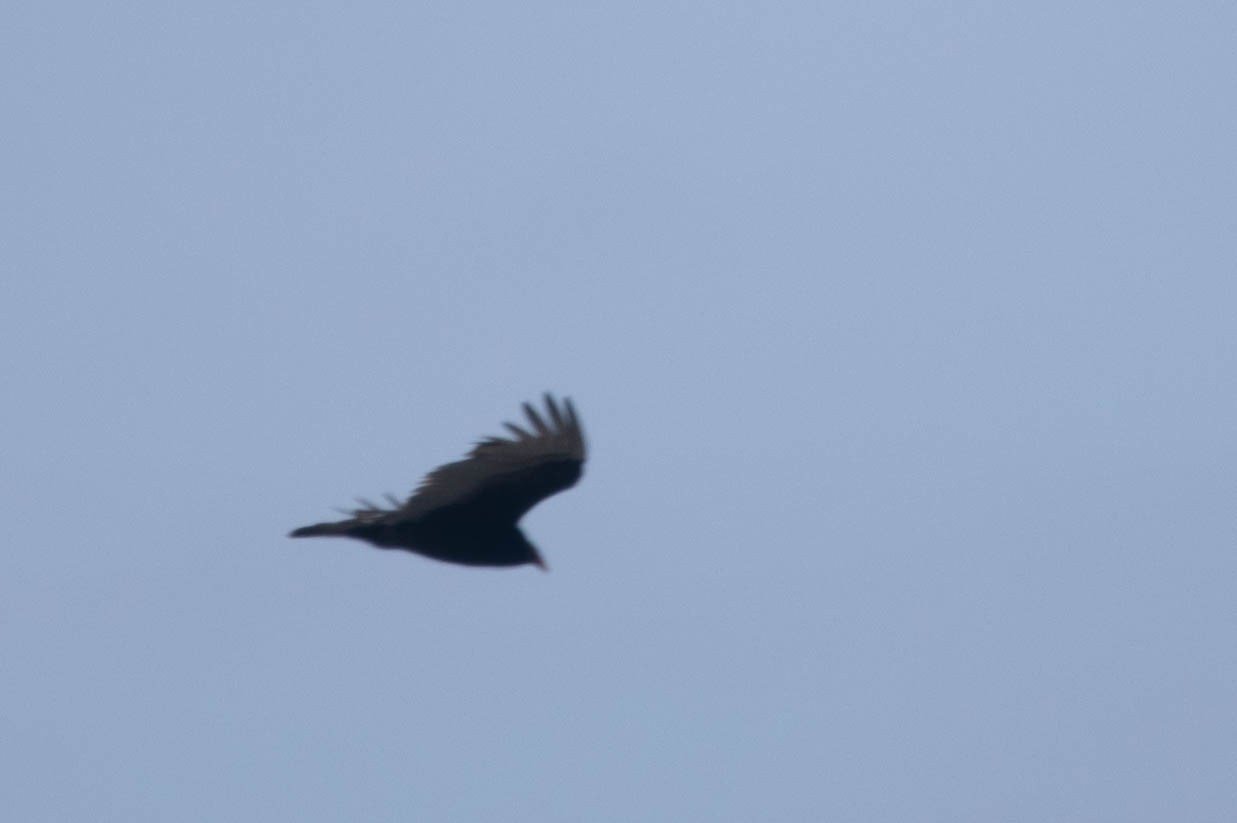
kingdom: Animalia
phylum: Chordata
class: Aves
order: Accipitriformes
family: Cathartidae
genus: Cathartes
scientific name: Cathartes aura
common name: Turkey vulture
